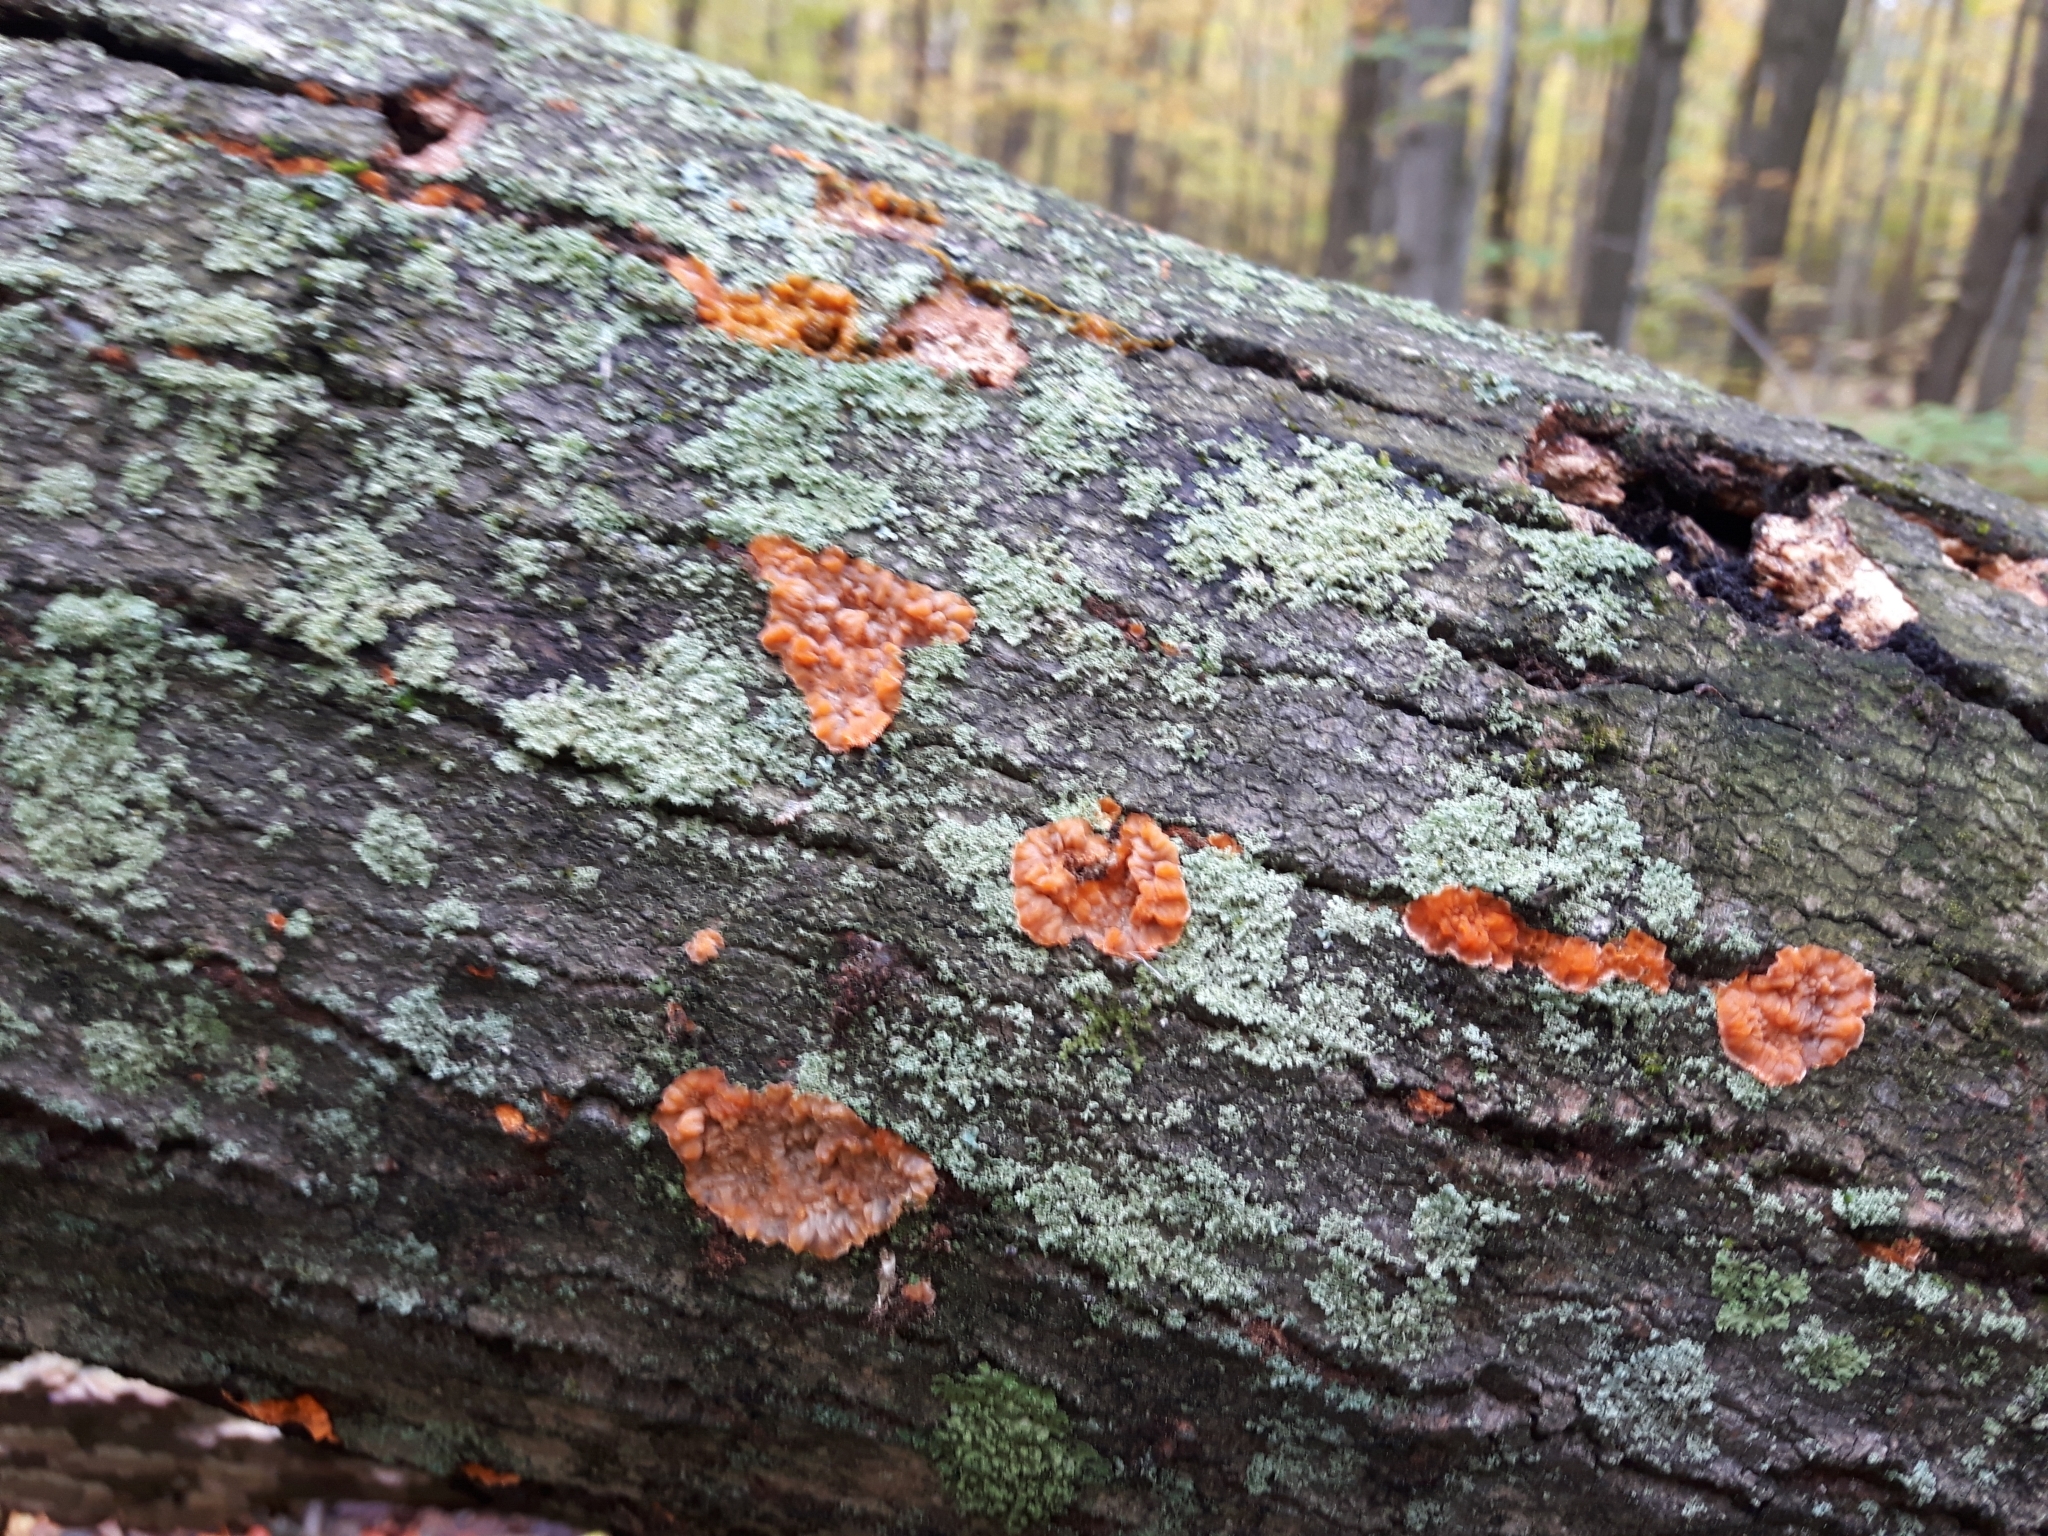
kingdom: Fungi
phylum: Basidiomycota
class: Agaricomycetes
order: Polyporales
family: Meruliaceae
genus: Phlebia
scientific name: Phlebia radiata
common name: Wrinkled crust
